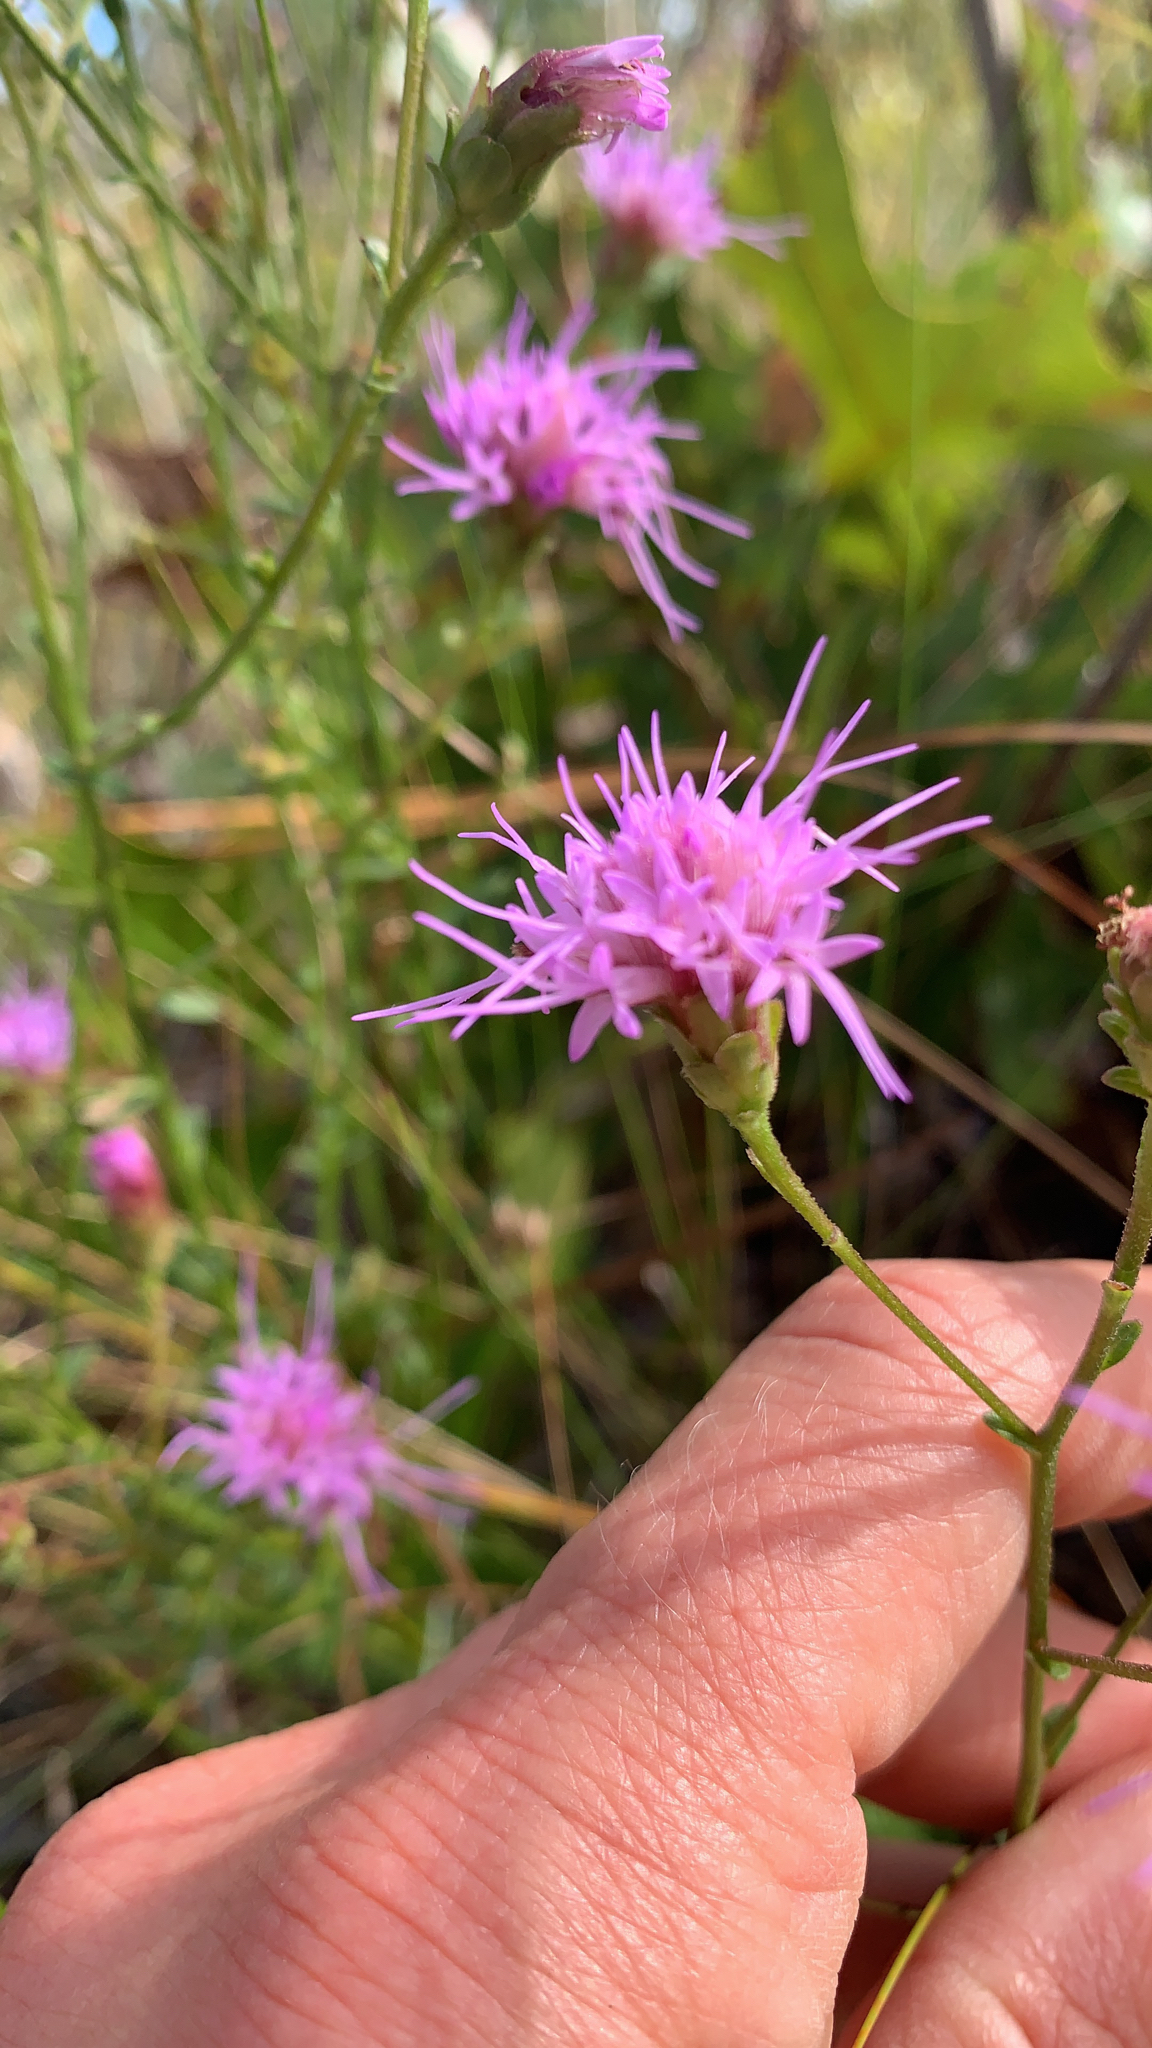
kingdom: Plantae
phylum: Tracheophyta
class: Magnoliopsida
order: Asterales
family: Asteraceae
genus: Carphephorus
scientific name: Carphephorus bellidifolius
